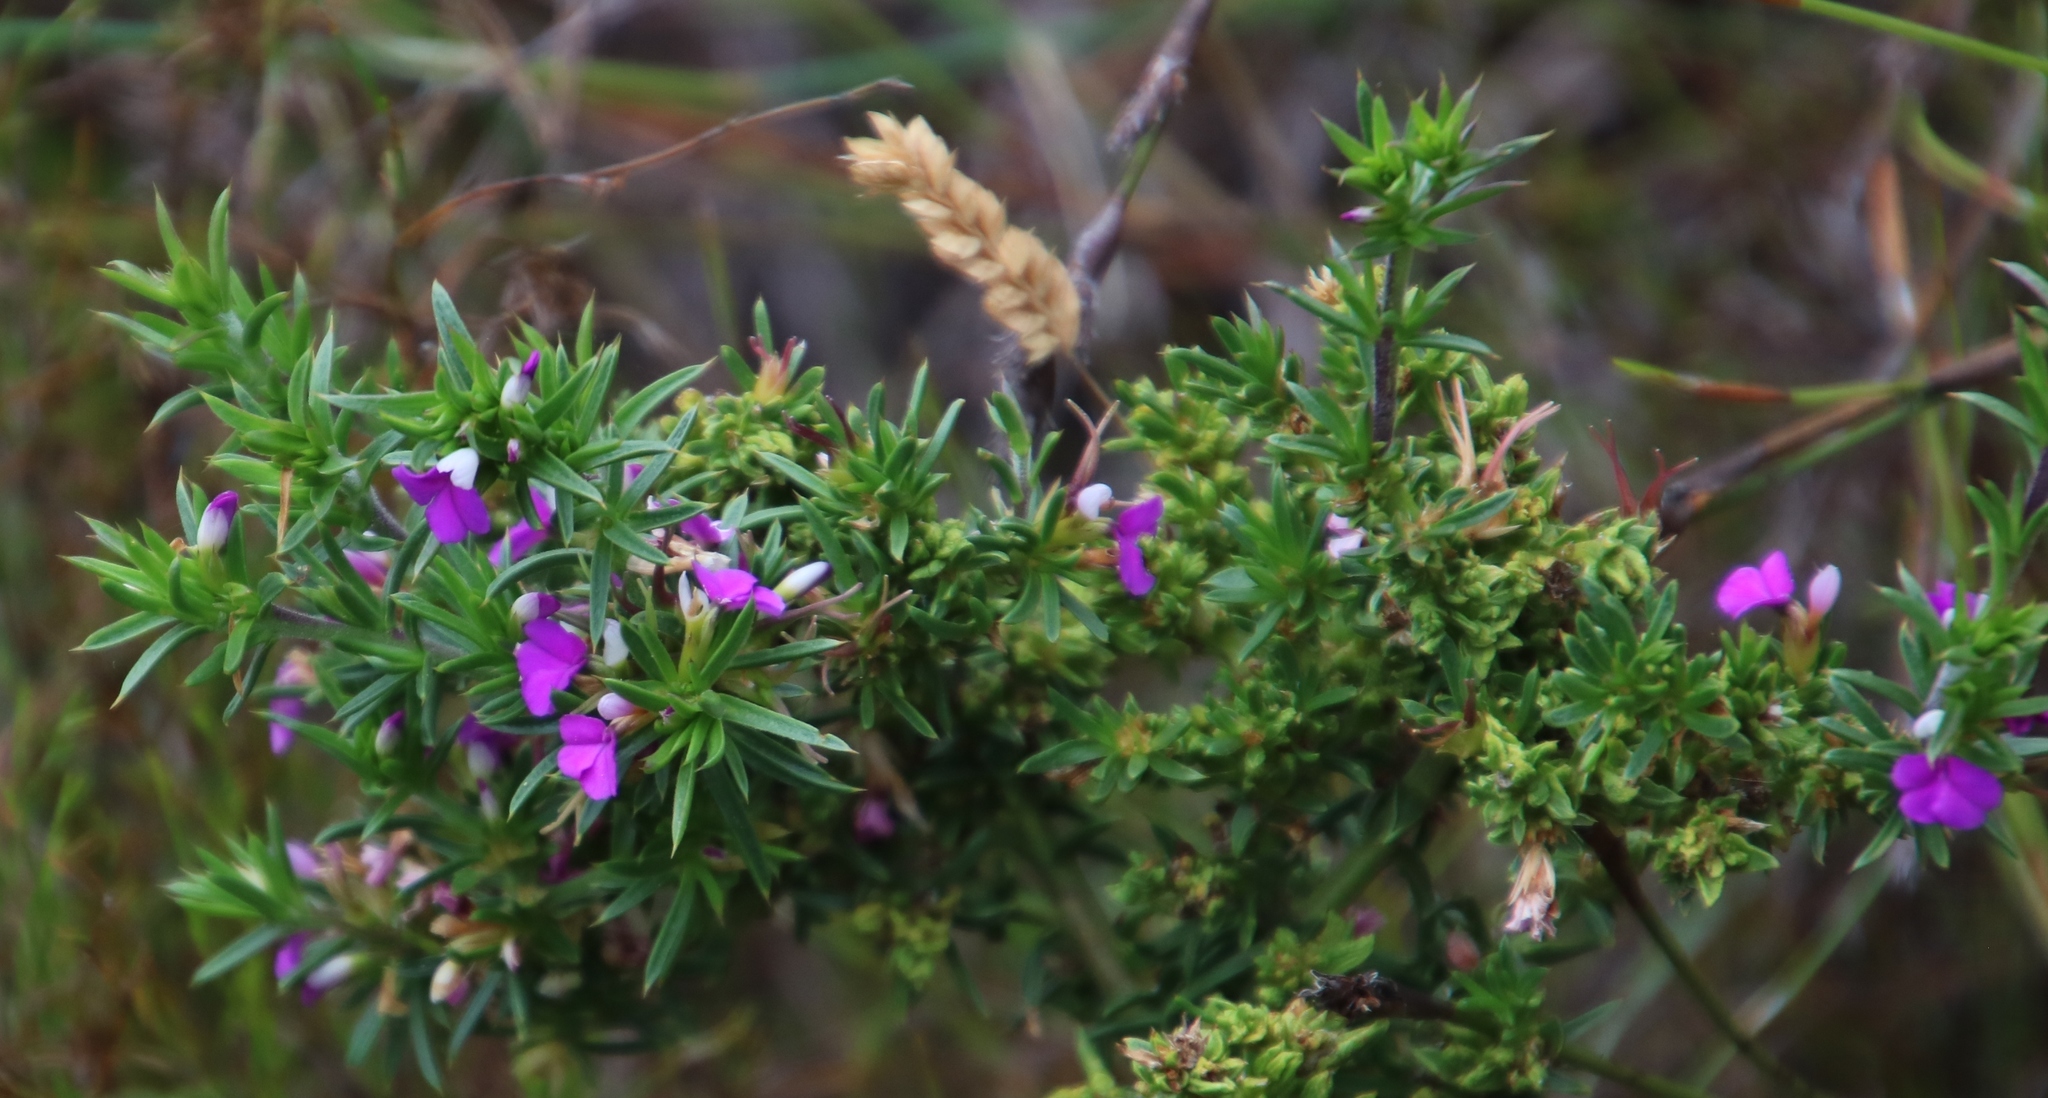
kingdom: Plantae
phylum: Tracheophyta
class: Magnoliopsida
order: Fabales
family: Polygalaceae
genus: Muraltia
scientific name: Muraltia heisteria
